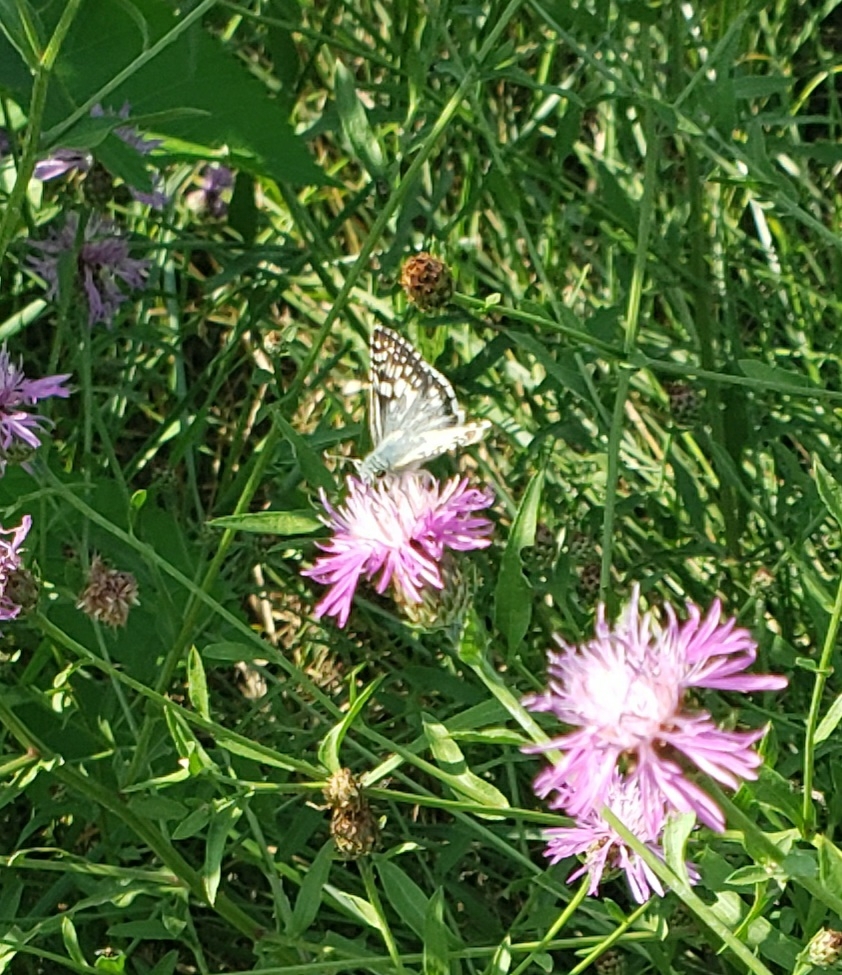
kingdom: Animalia
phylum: Arthropoda
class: Insecta
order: Lepidoptera
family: Hesperiidae
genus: Burnsius
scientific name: Burnsius communis
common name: Common checkered-skipper
